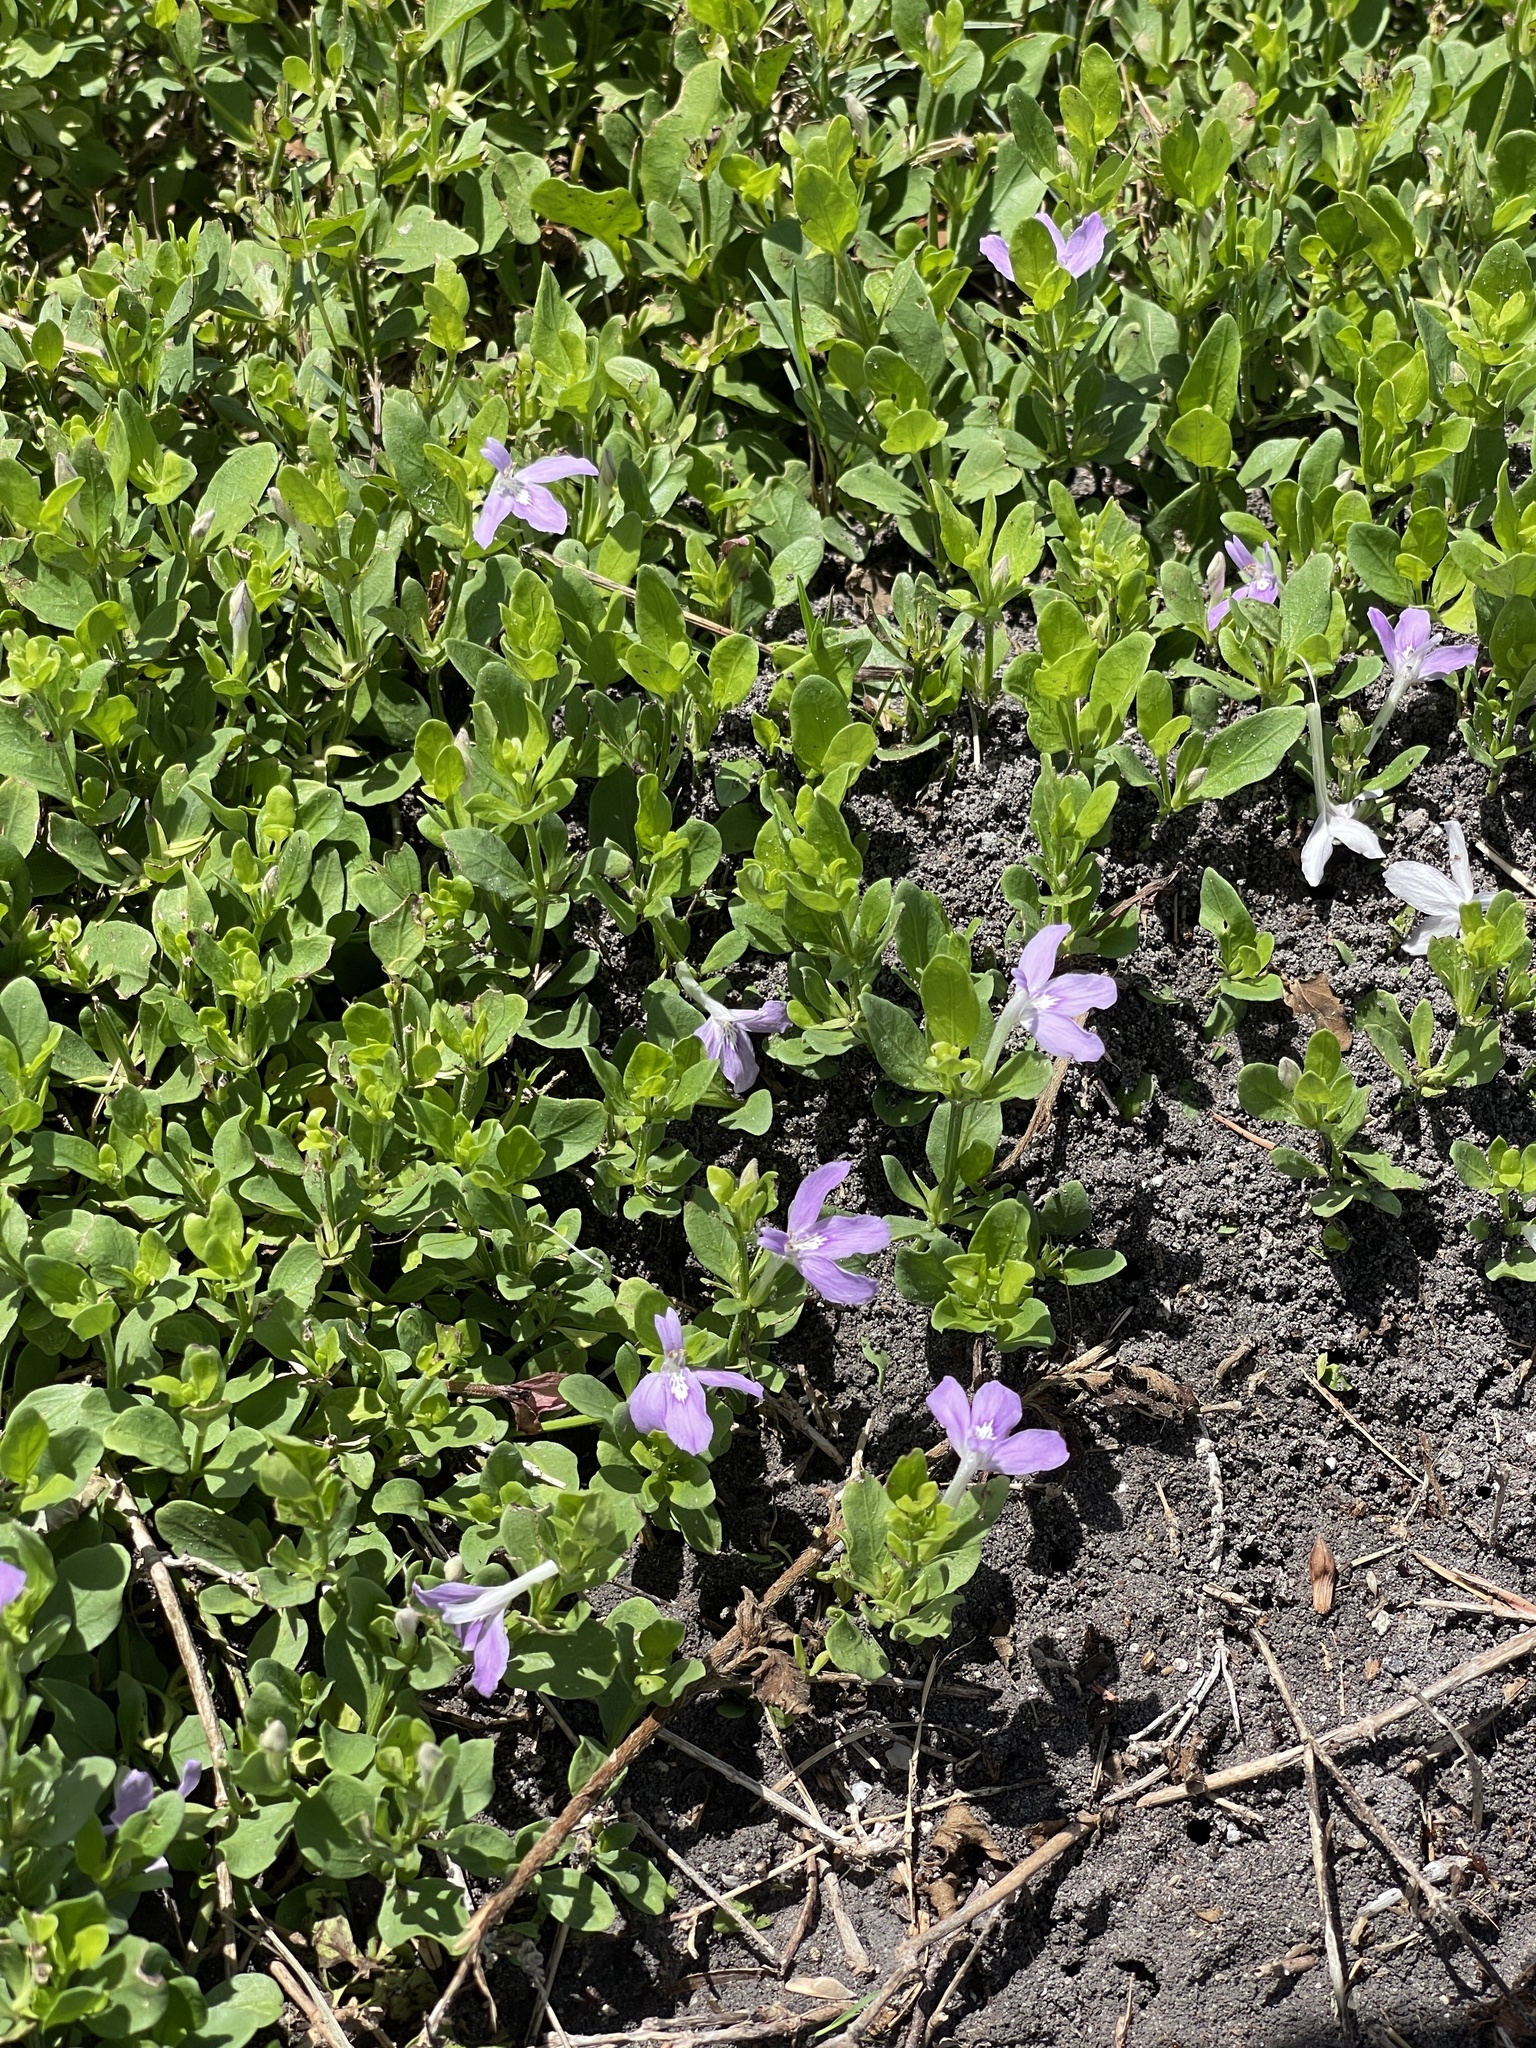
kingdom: Plantae
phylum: Tracheophyta
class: Magnoliopsida
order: Lamiales
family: Acanthaceae
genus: Justicia
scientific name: Justicia pilosella
